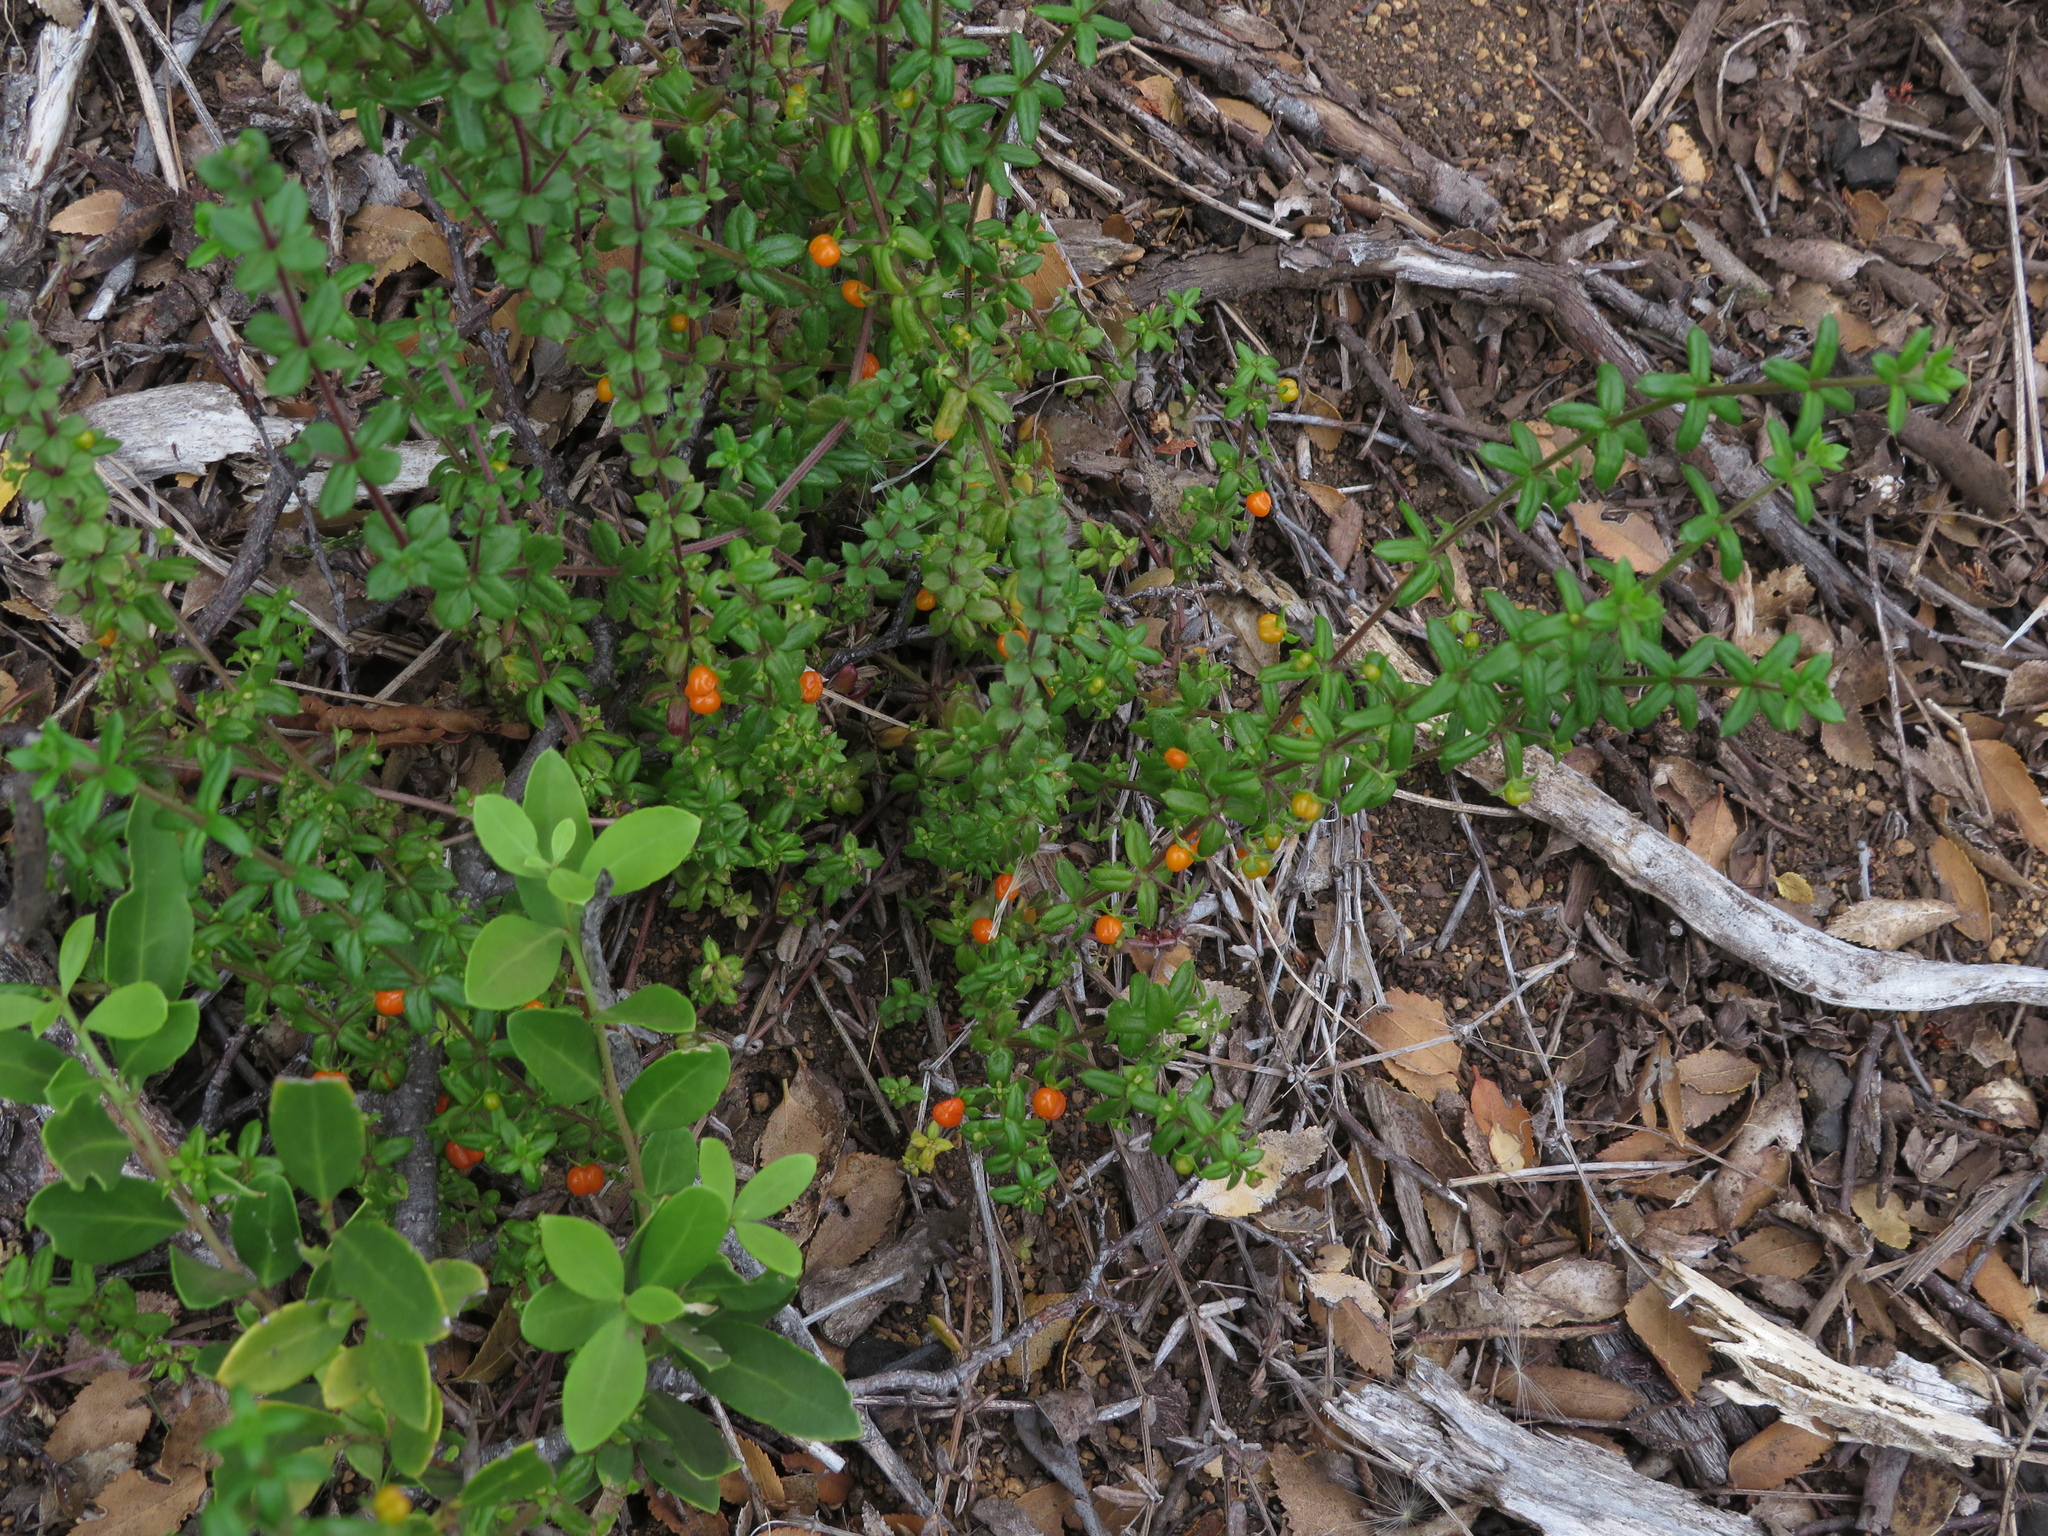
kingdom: Plantae
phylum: Tracheophyta
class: Magnoliopsida
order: Gentianales
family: Rubiaceae
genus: Galium
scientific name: Galium hypocarpium
